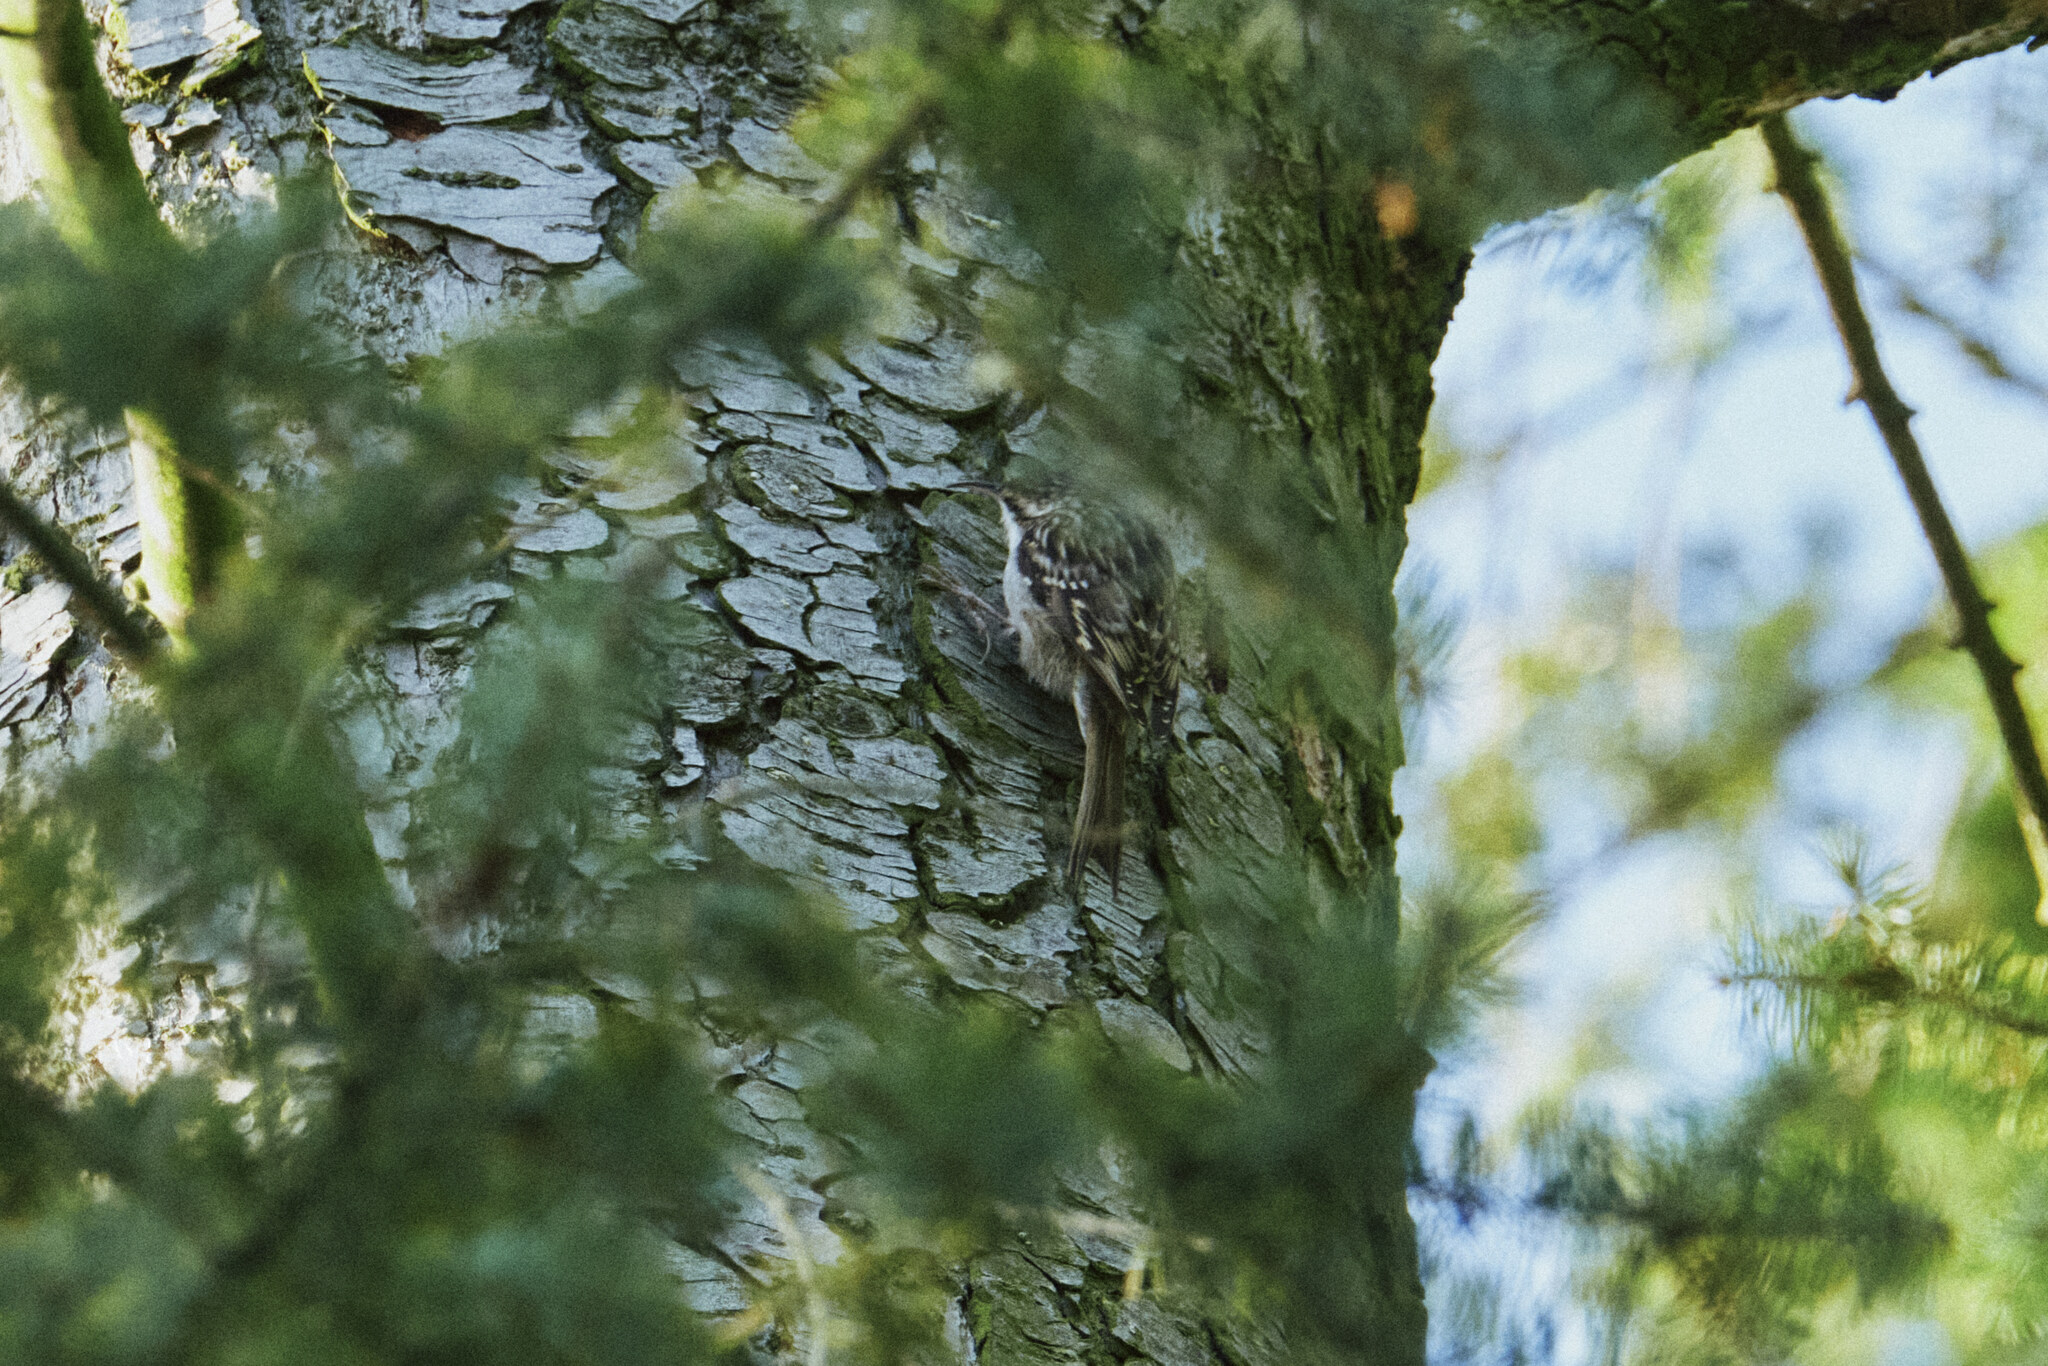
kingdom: Animalia
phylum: Chordata
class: Aves
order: Passeriformes
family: Certhiidae
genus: Certhia
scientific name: Certhia brachydactyla
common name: Short-toed treecreeper
